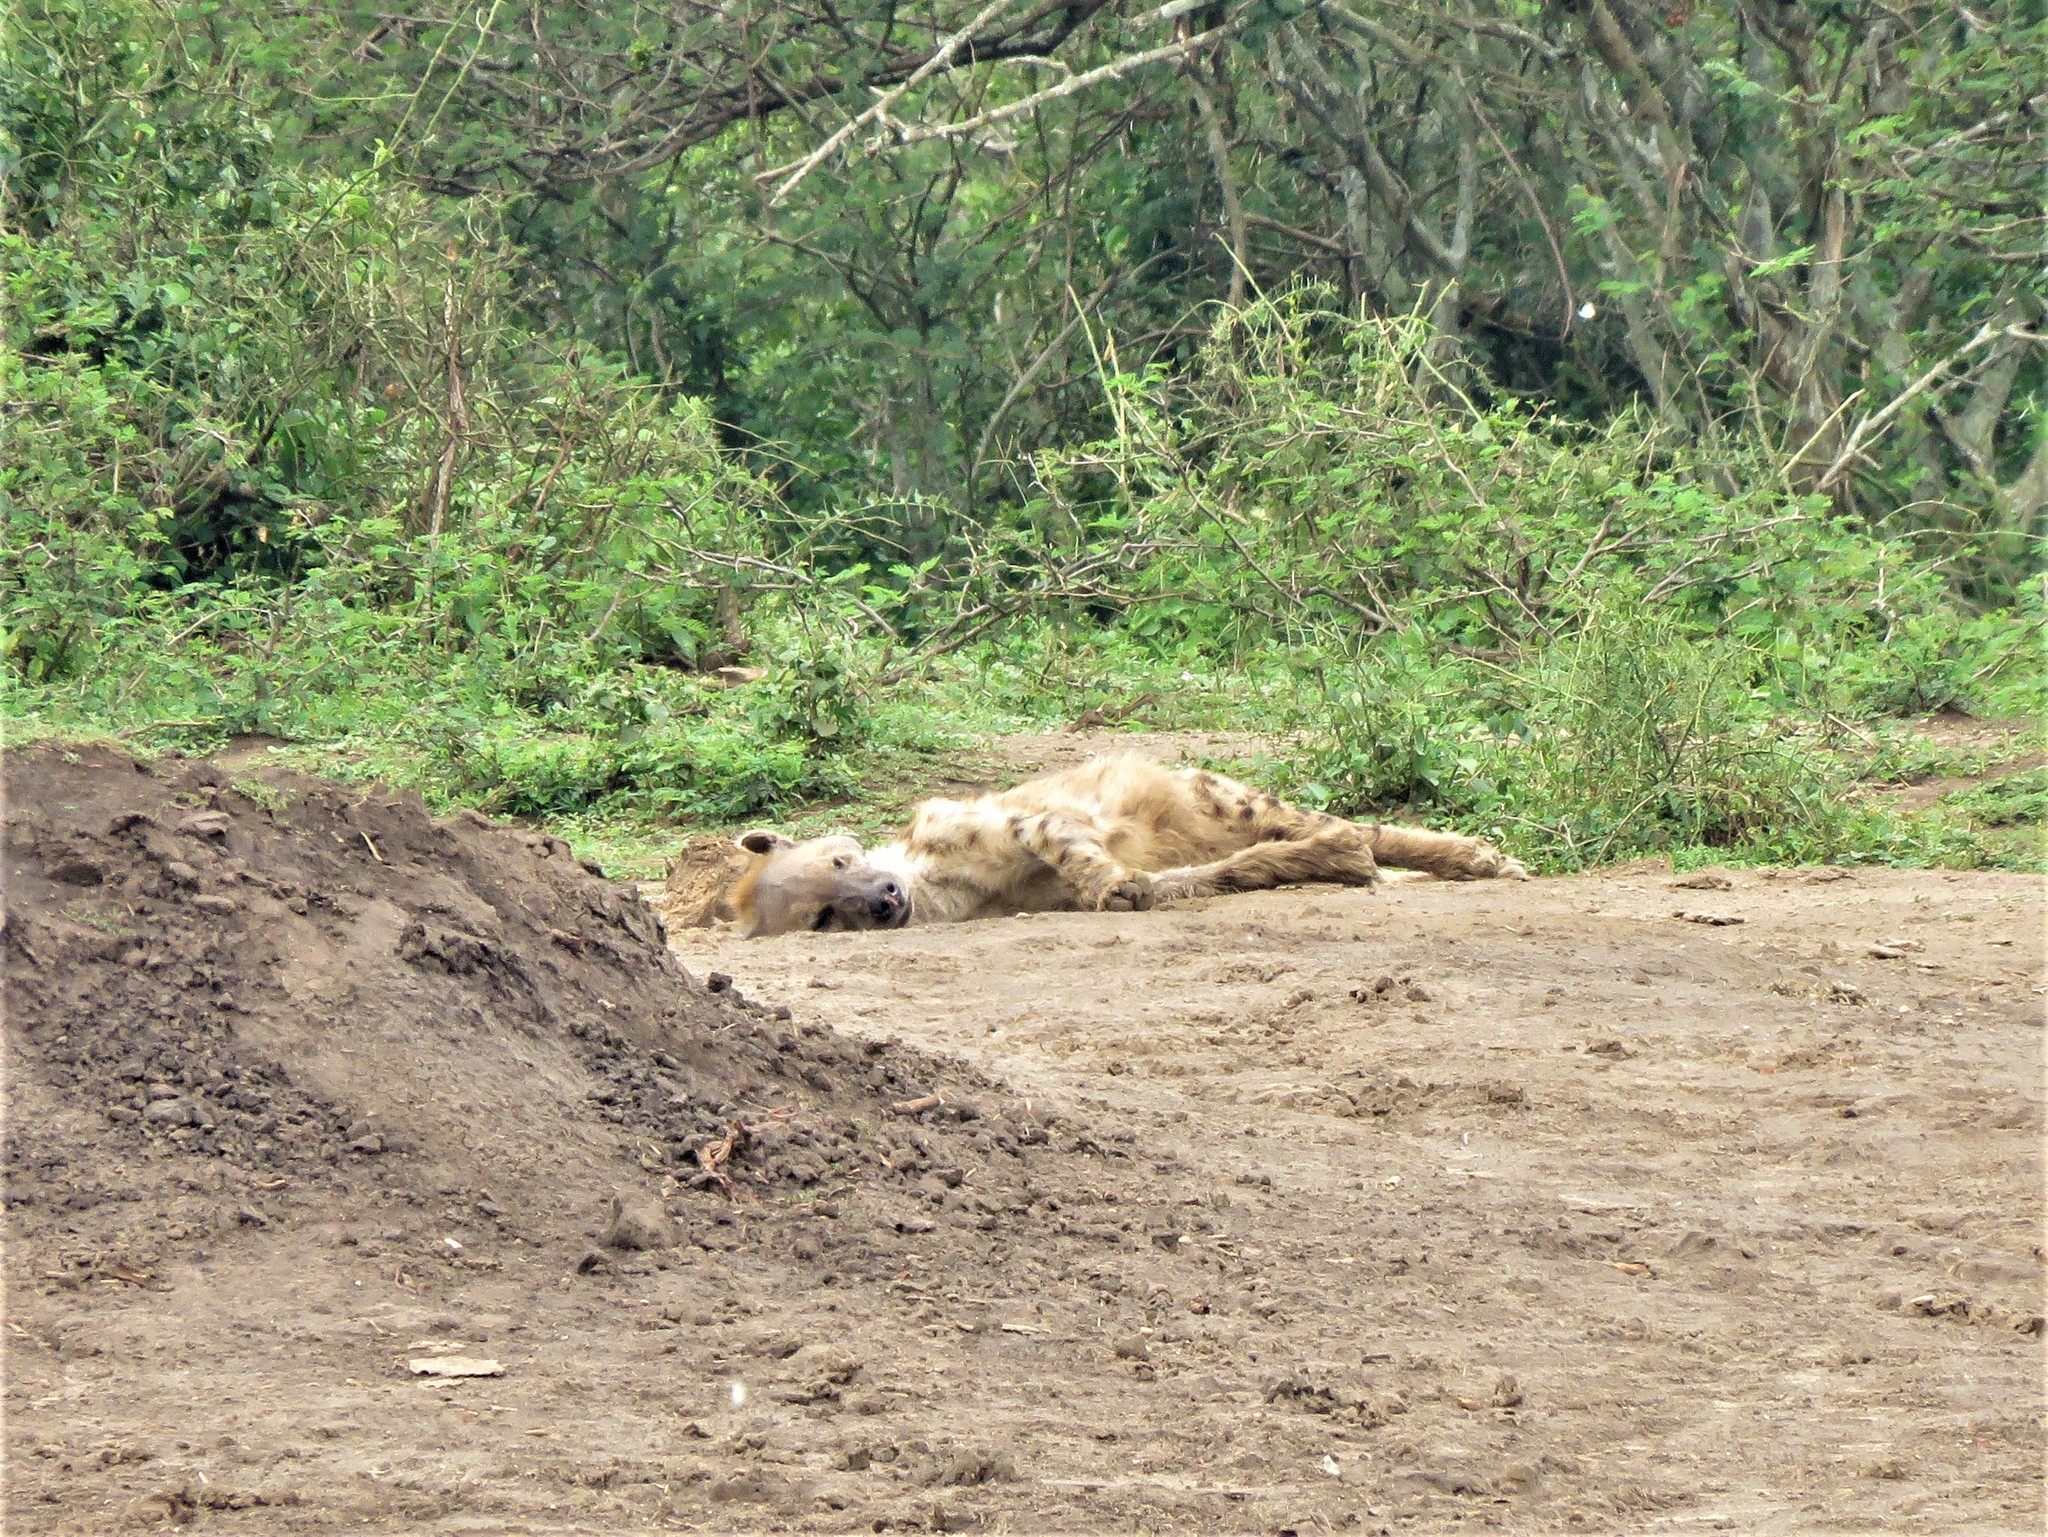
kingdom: Animalia
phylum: Chordata
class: Mammalia
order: Carnivora
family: Hyaenidae
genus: Crocuta
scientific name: Crocuta crocuta
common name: Spotted hyaena
